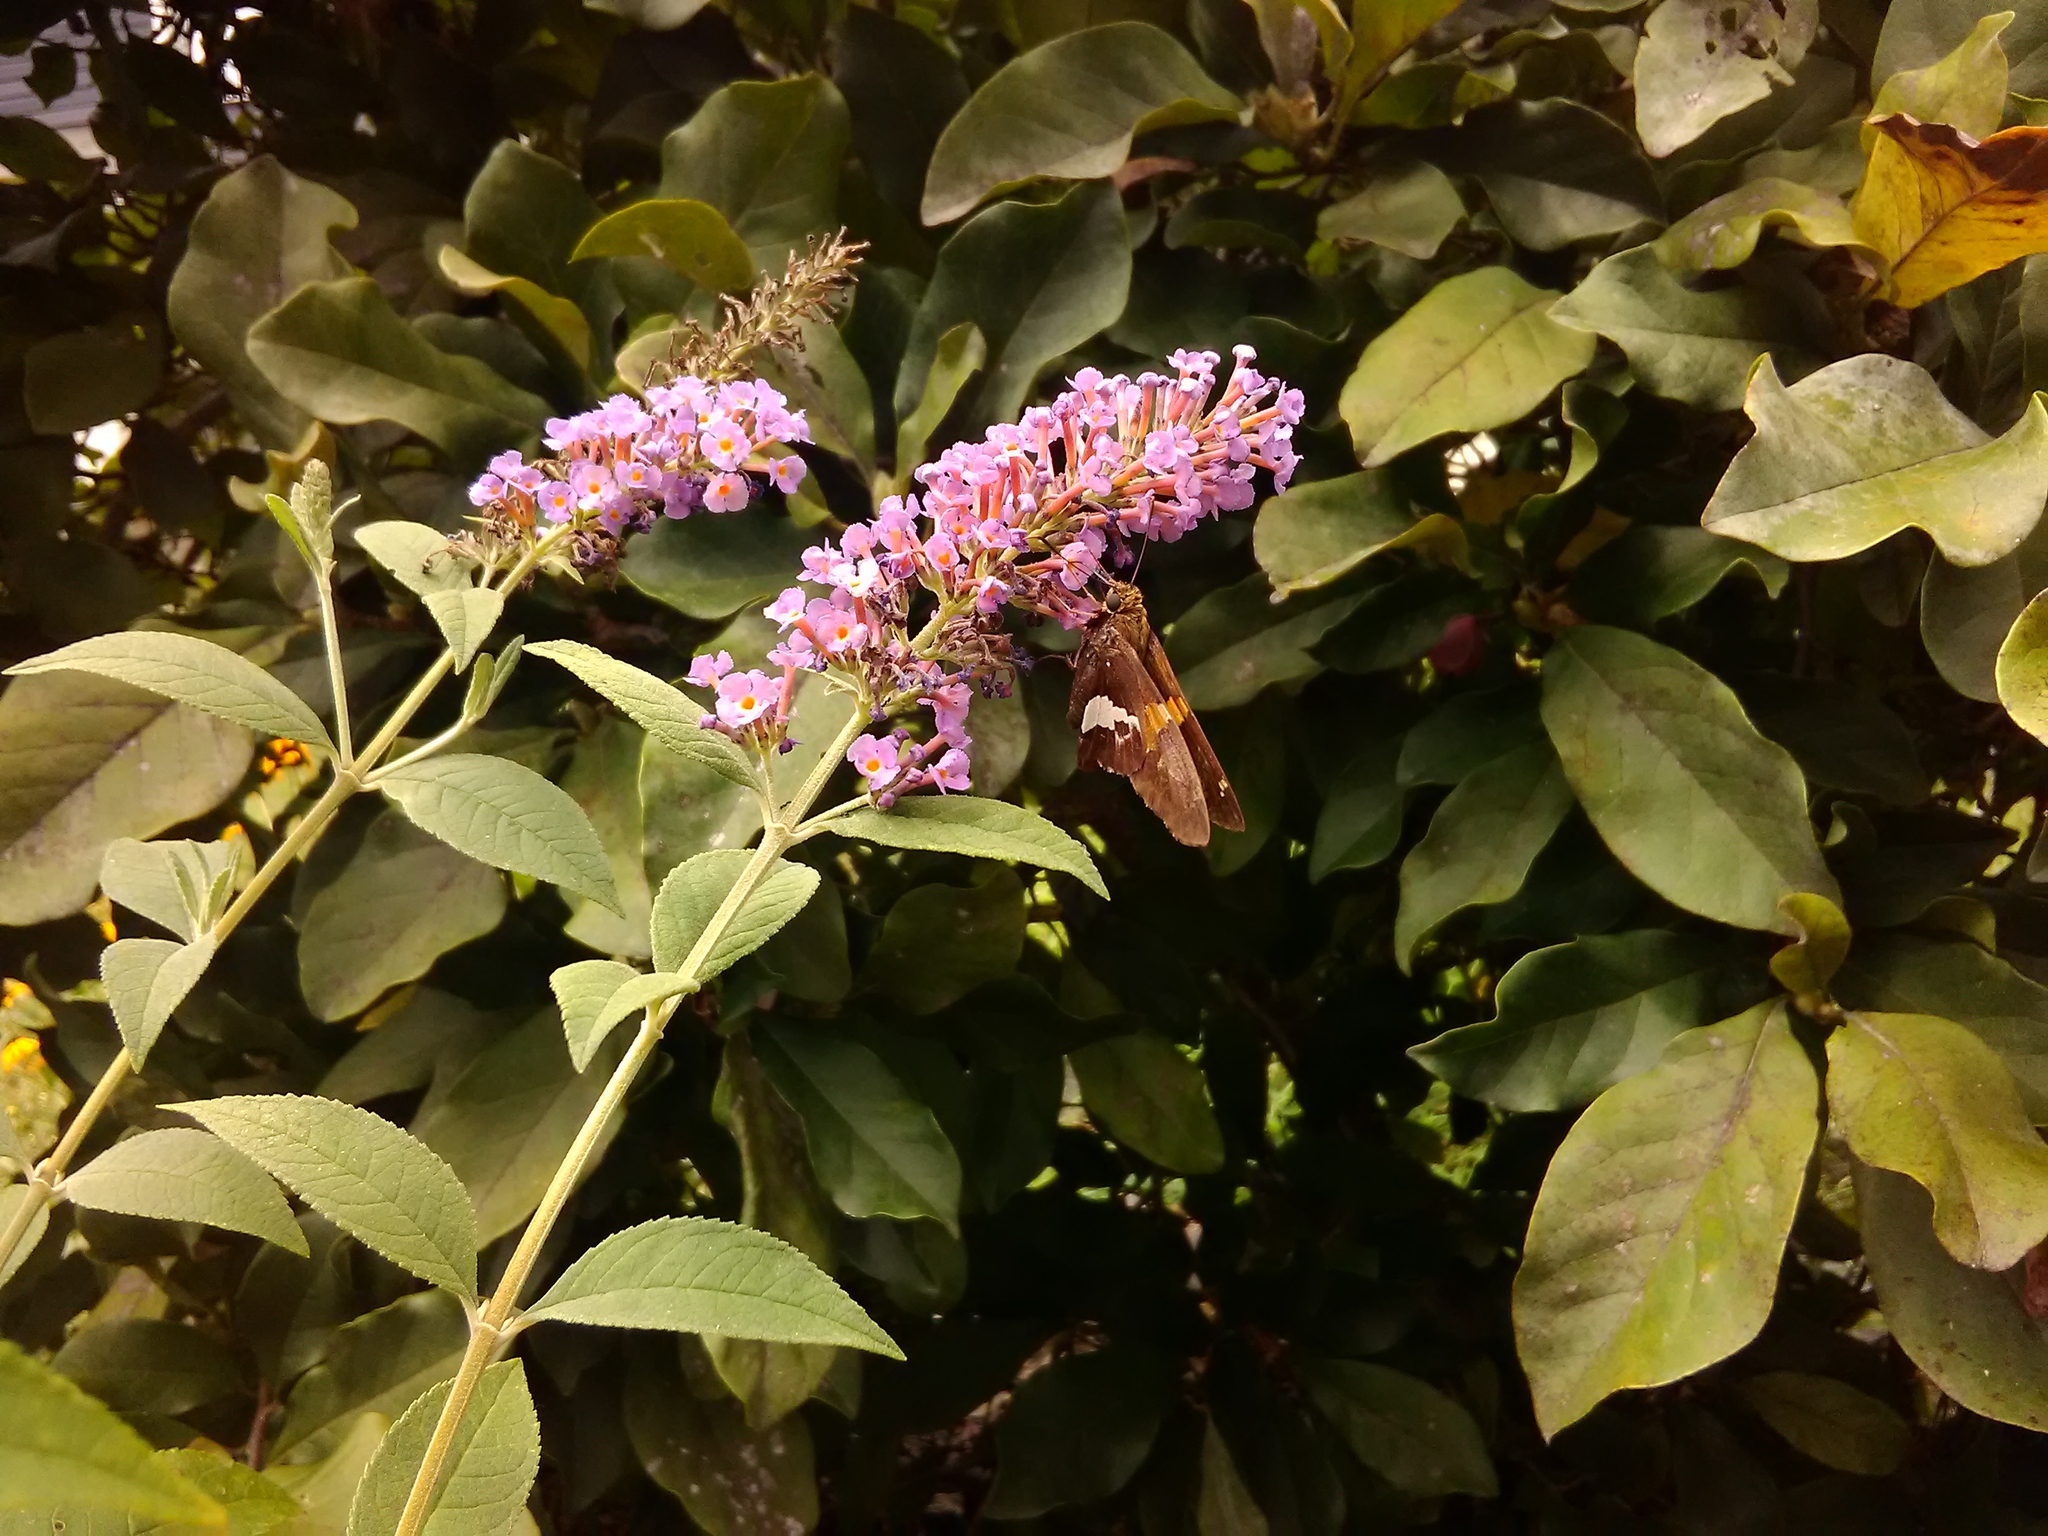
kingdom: Animalia
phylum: Arthropoda
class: Insecta
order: Lepidoptera
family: Hesperiidae
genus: Epargyreus
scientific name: Epargyreus clarus
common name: Silver-spotted skipper
